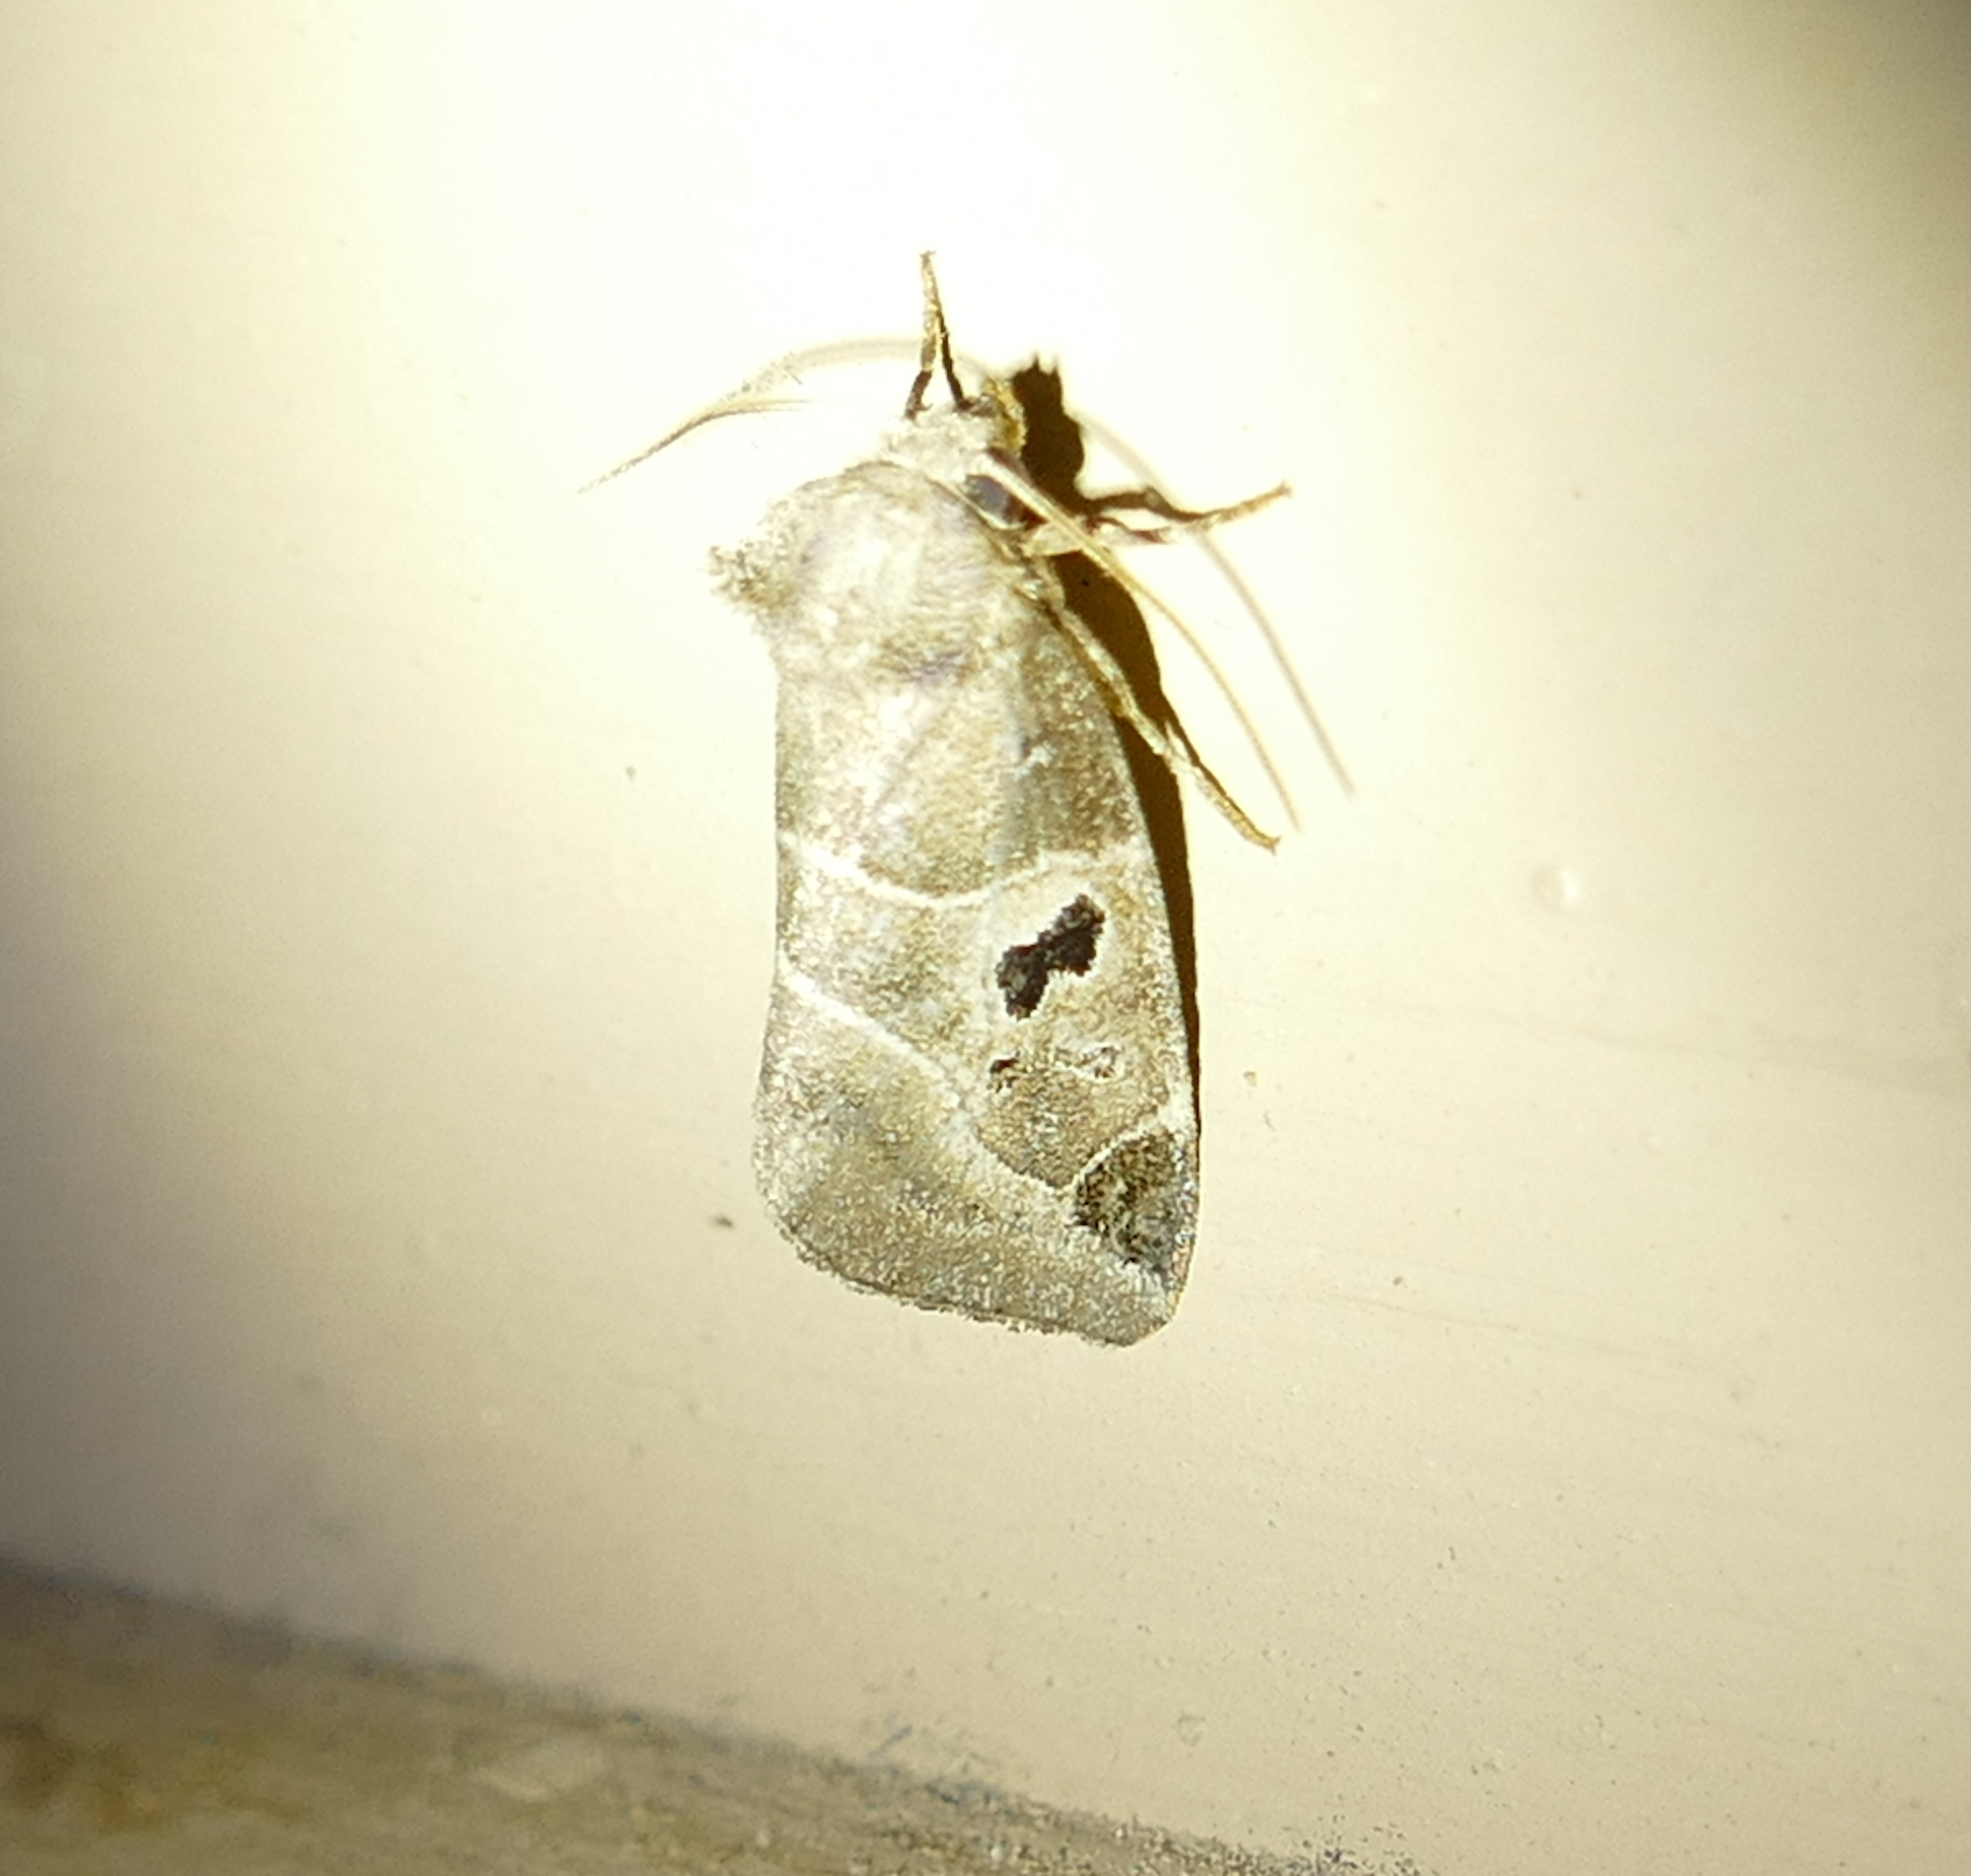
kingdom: Animalia
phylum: Arthropoda
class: Insecta
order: Lepidoptera
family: Noctuidae
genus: Plagiomimicus
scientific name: Plagiomimicus pityochromus
